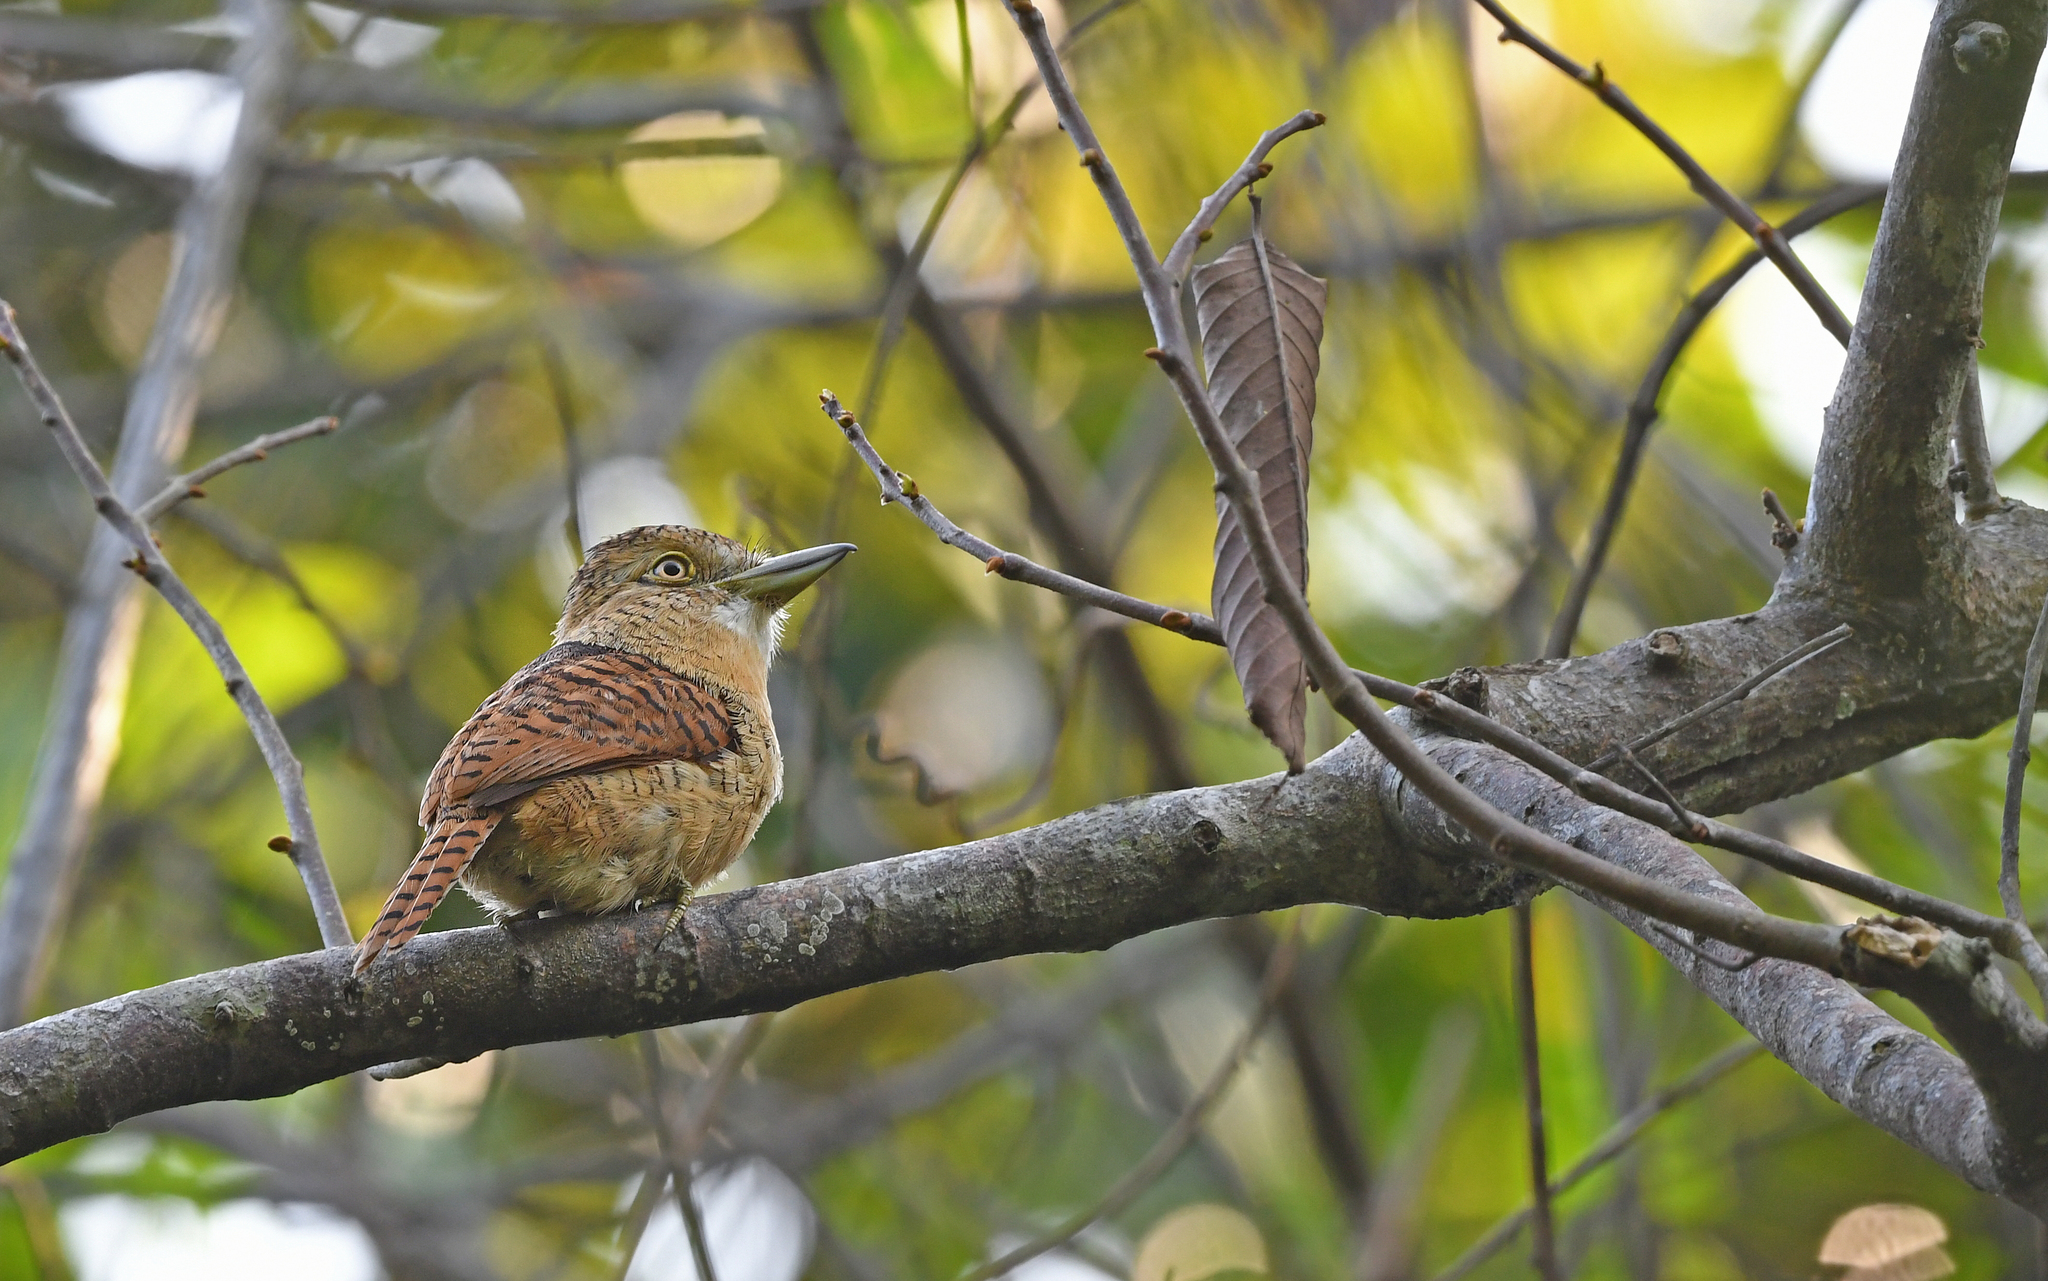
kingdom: Animalia
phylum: Chordata
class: Aves
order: Piciformes
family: Bucconidae
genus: Nystalus
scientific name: Nystalus radiatus
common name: Barred puffbird
